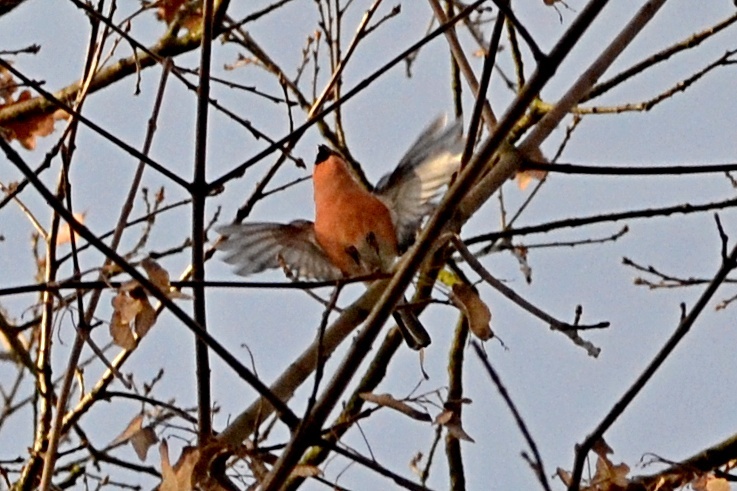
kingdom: Animalia
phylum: Chordata
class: Aves
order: Passeriformes
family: Fringillidae
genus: Pyrrhula
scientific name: Pyrrhula pyrrhula
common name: Eurasian bullfinch
